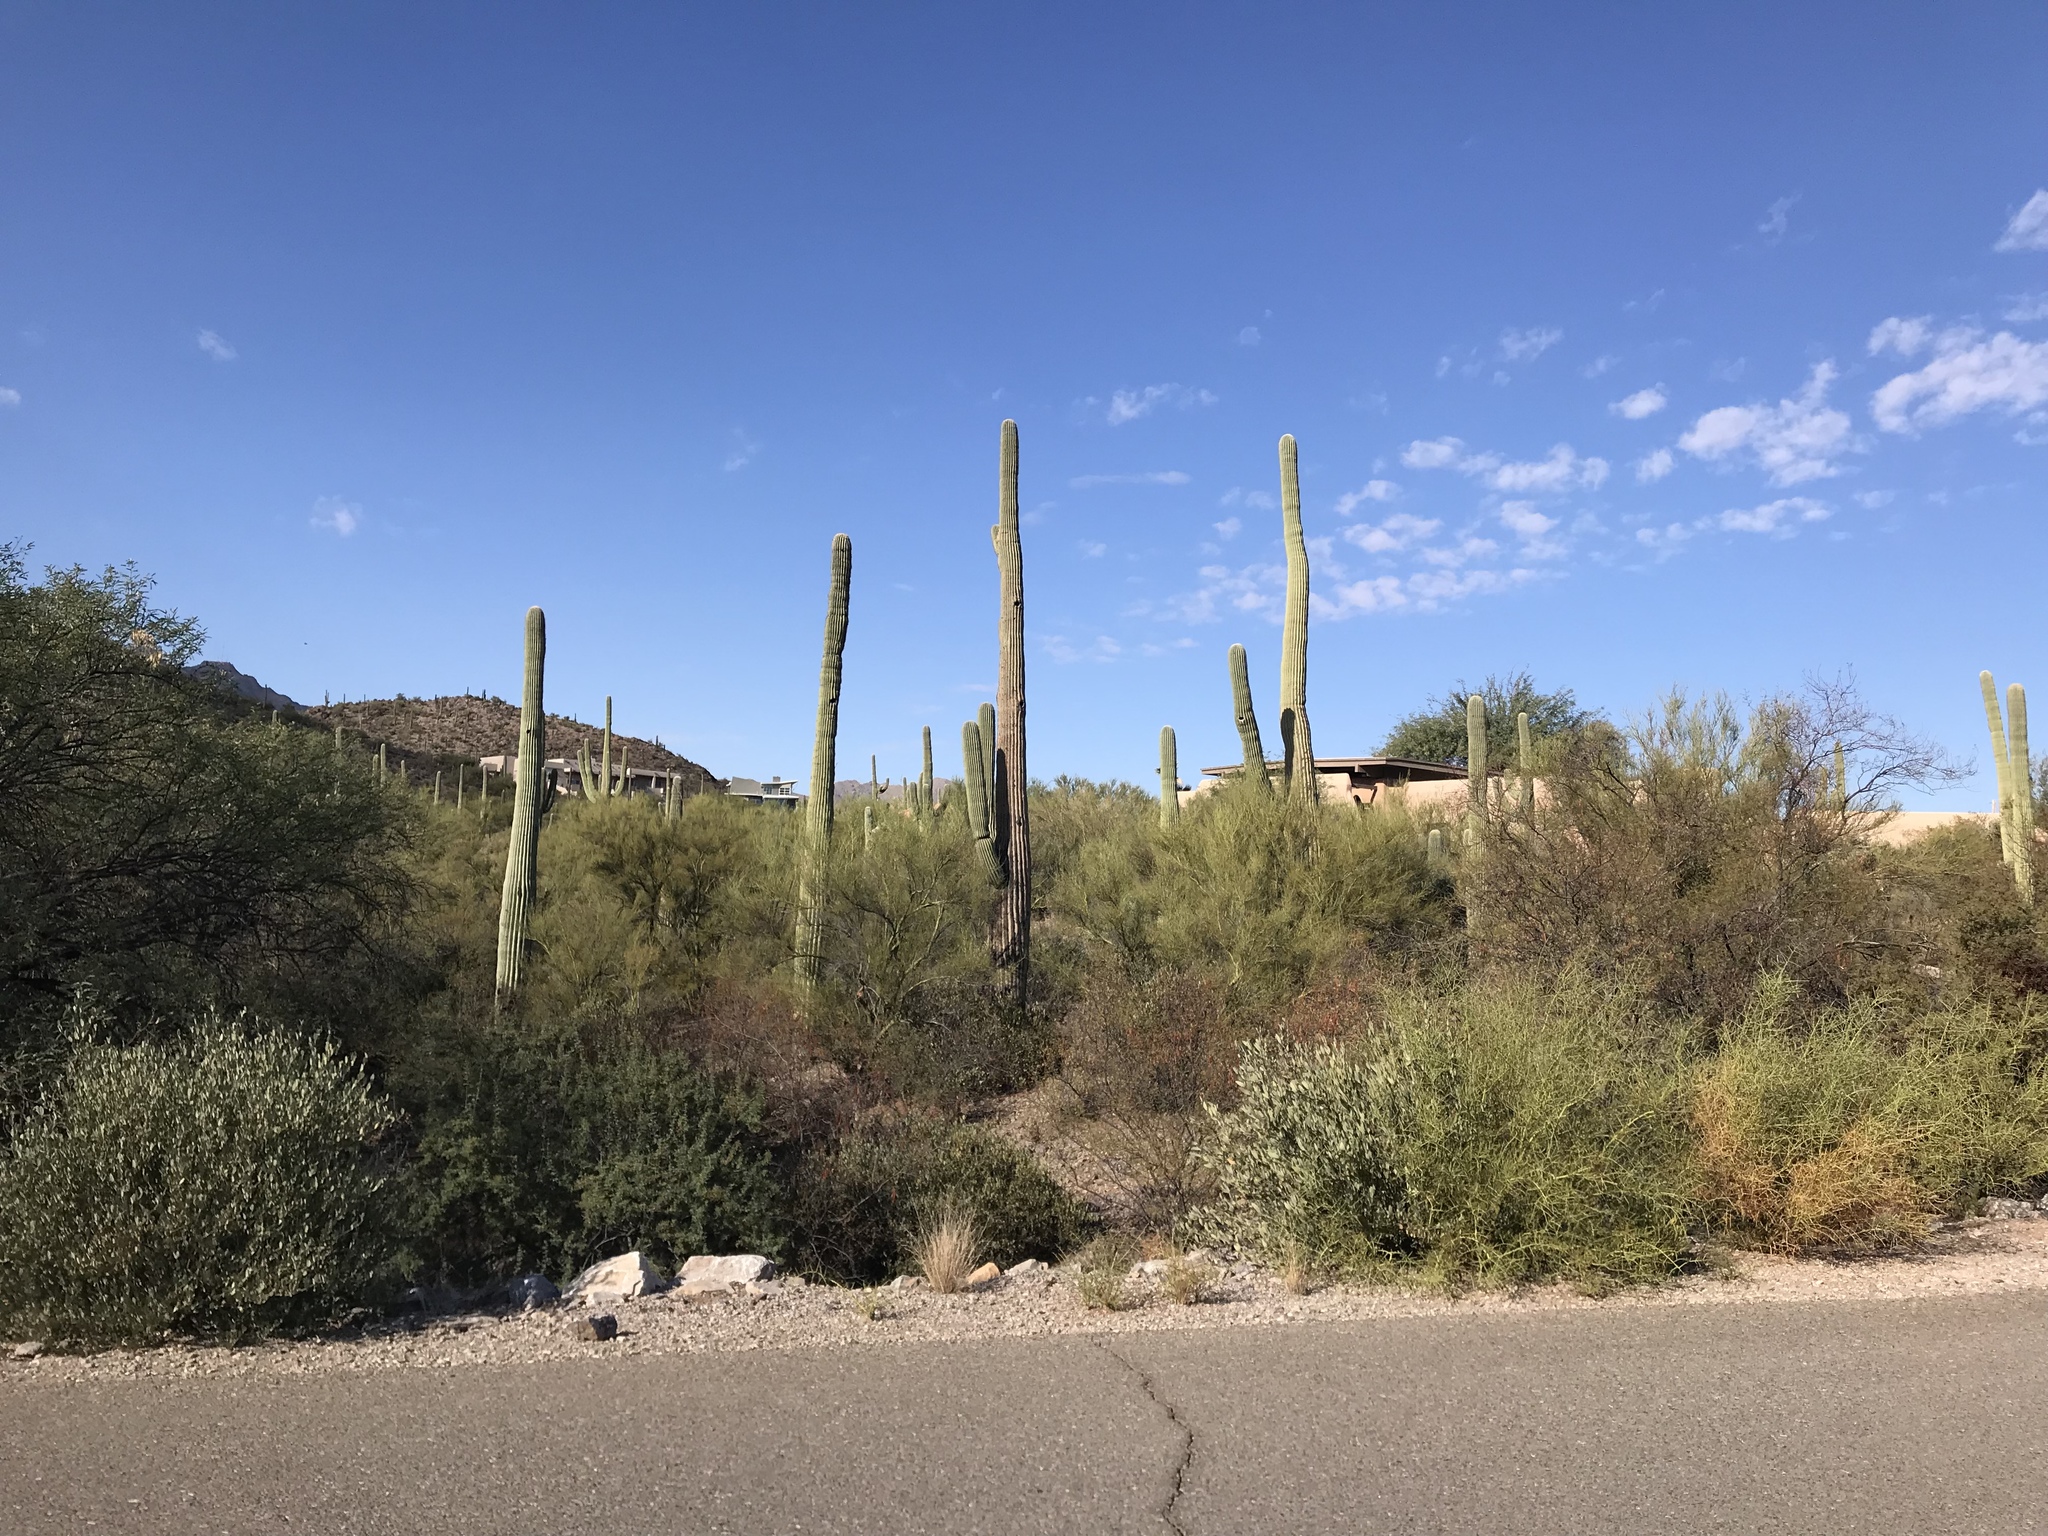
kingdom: Plantae
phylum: Tracheophyta
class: Magnoliopsida
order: Caryophyllales
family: Cactaceae
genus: Carnegiea
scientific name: Carnegiea gigantea
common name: Saguaro
